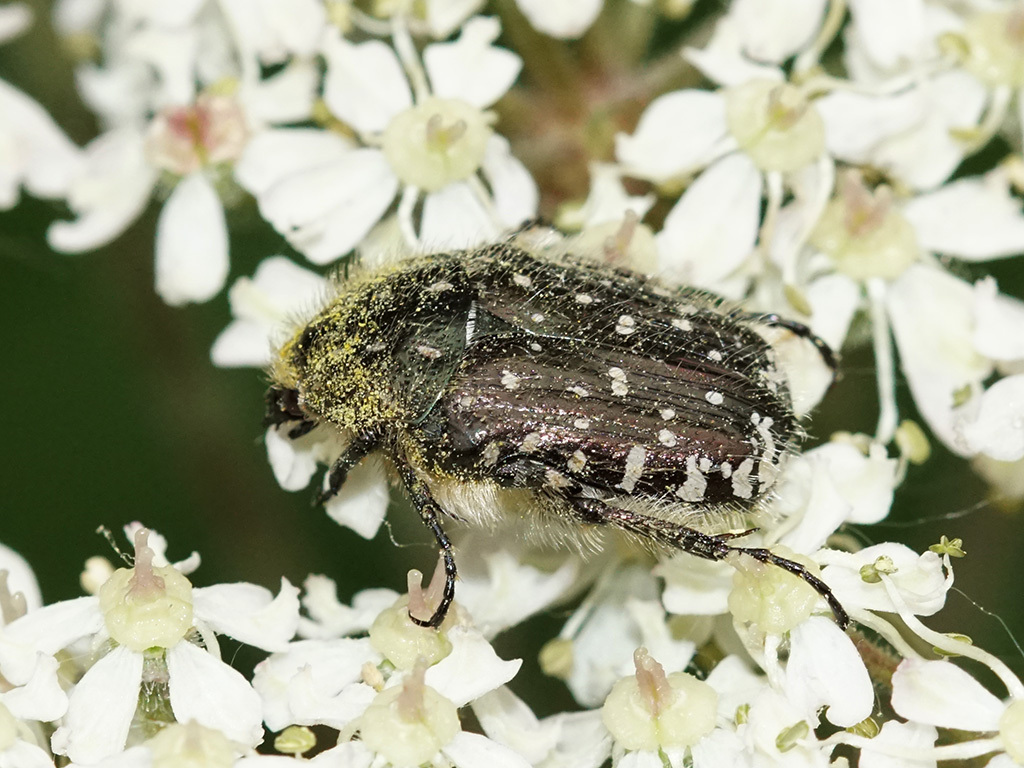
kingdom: Animalia
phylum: Arthropoda
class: Insecta
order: Coleoptera
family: Scarabaeidae
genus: Oxythyrea
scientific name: Oxythyrea funesta
